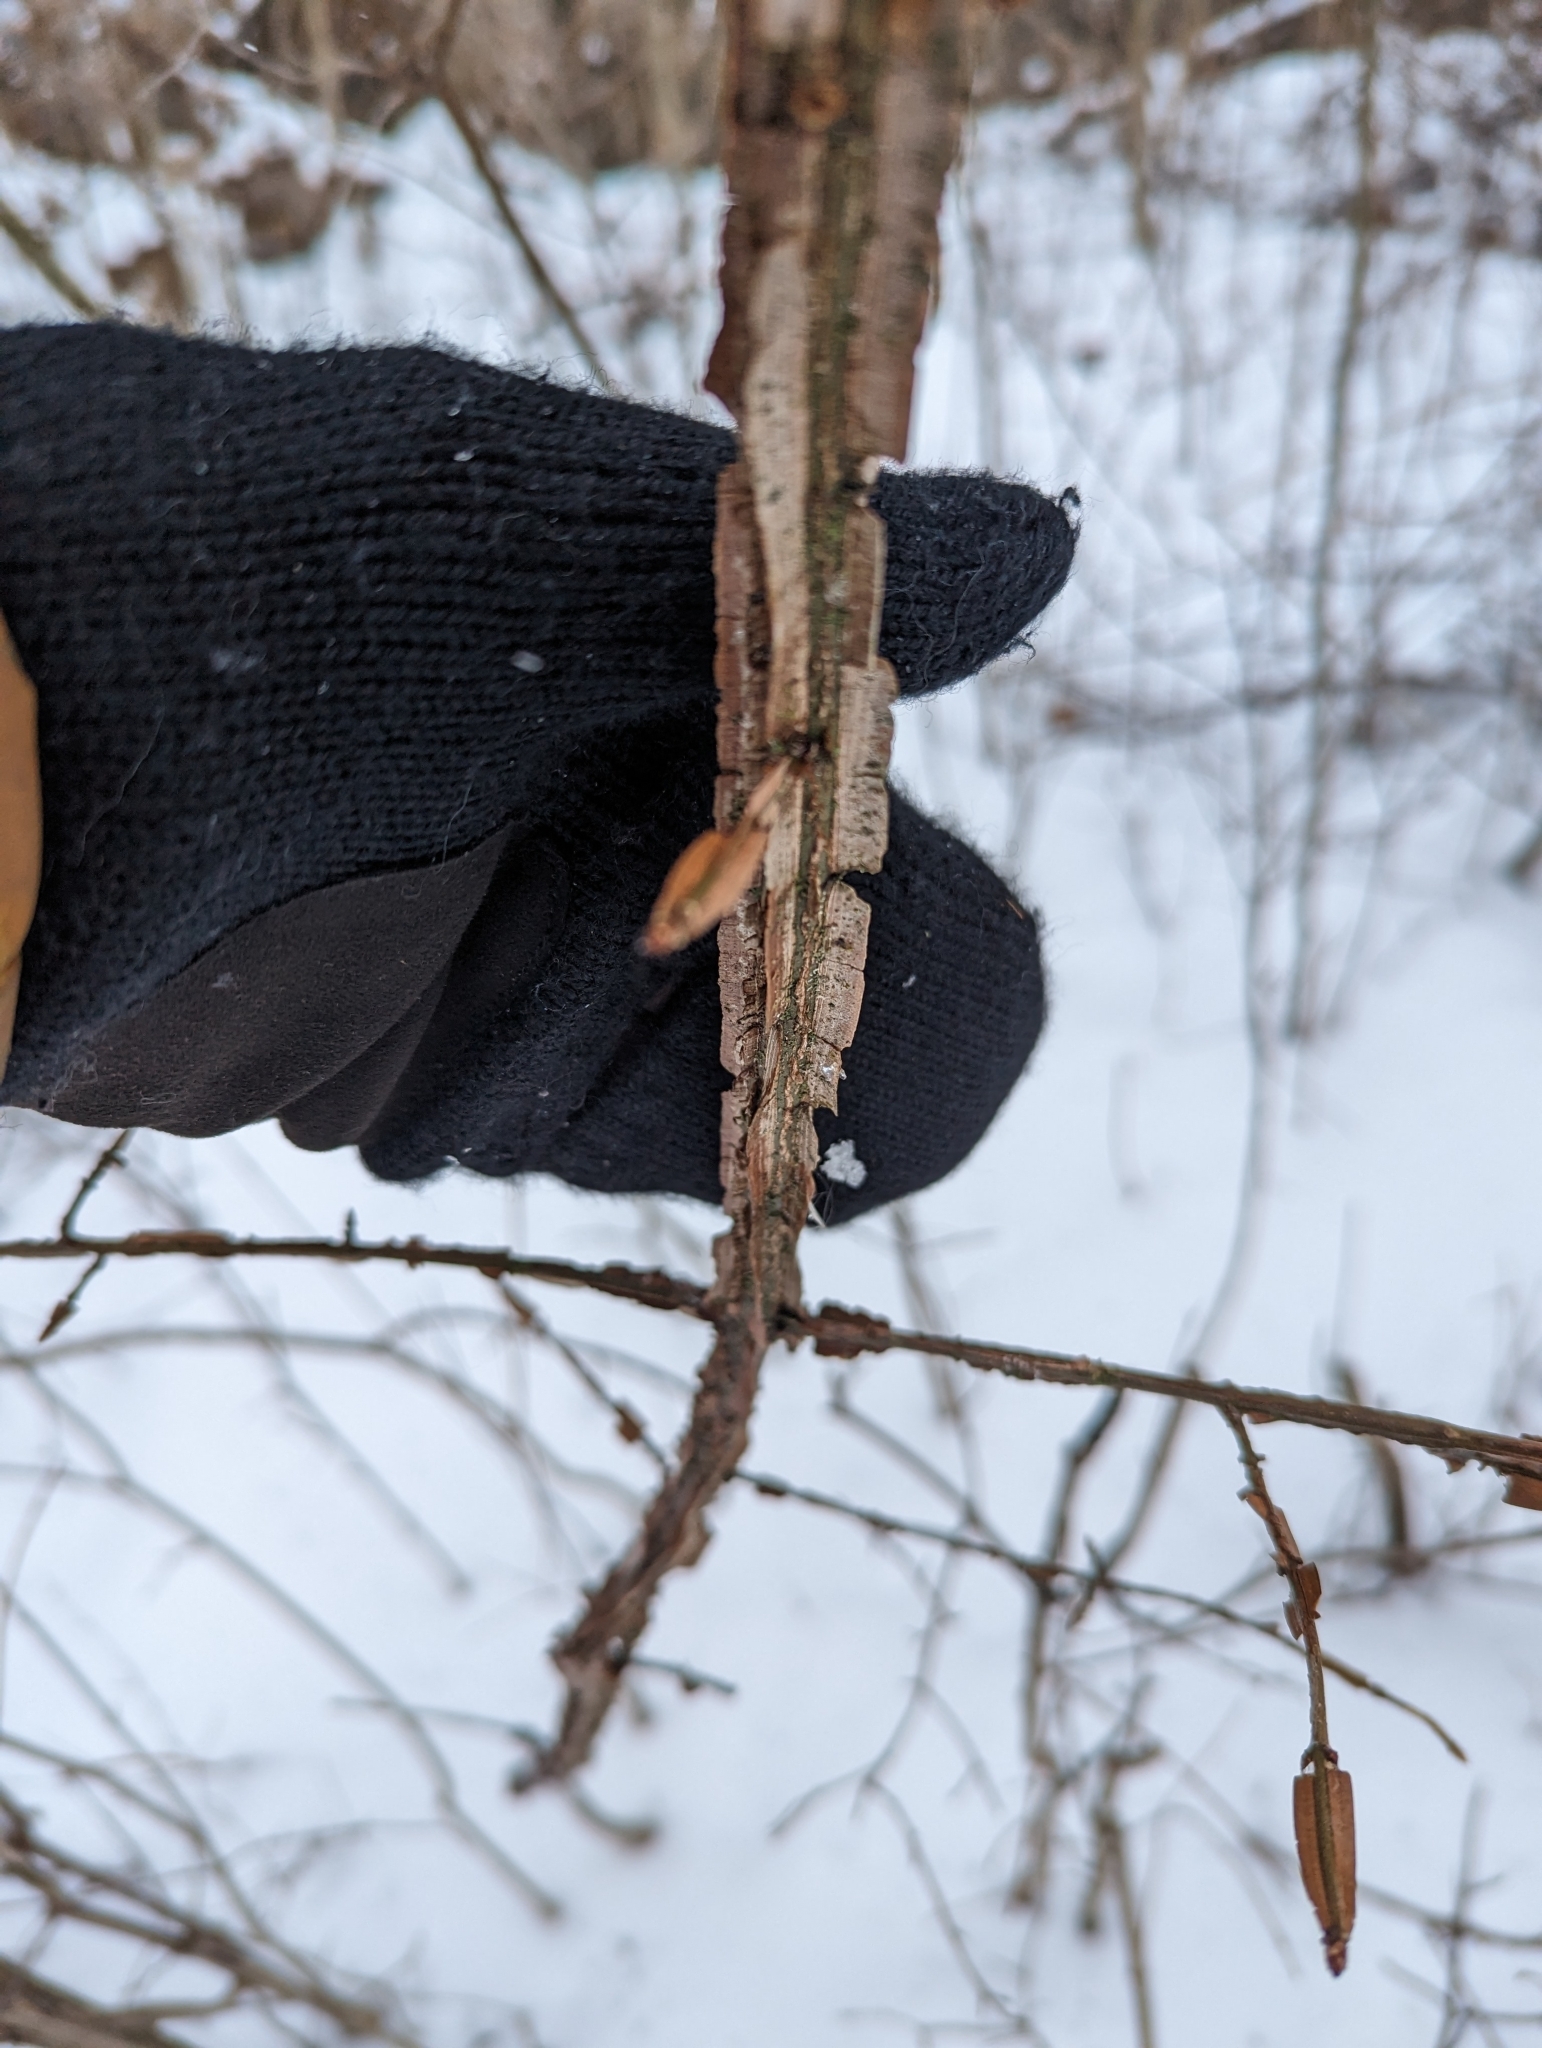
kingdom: Plantae
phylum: Tracheophyta
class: Magnoliopsida
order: Celastrales
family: Celastraceae
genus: Euonymus
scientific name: Euonymus alatus
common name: Winged euonymus
